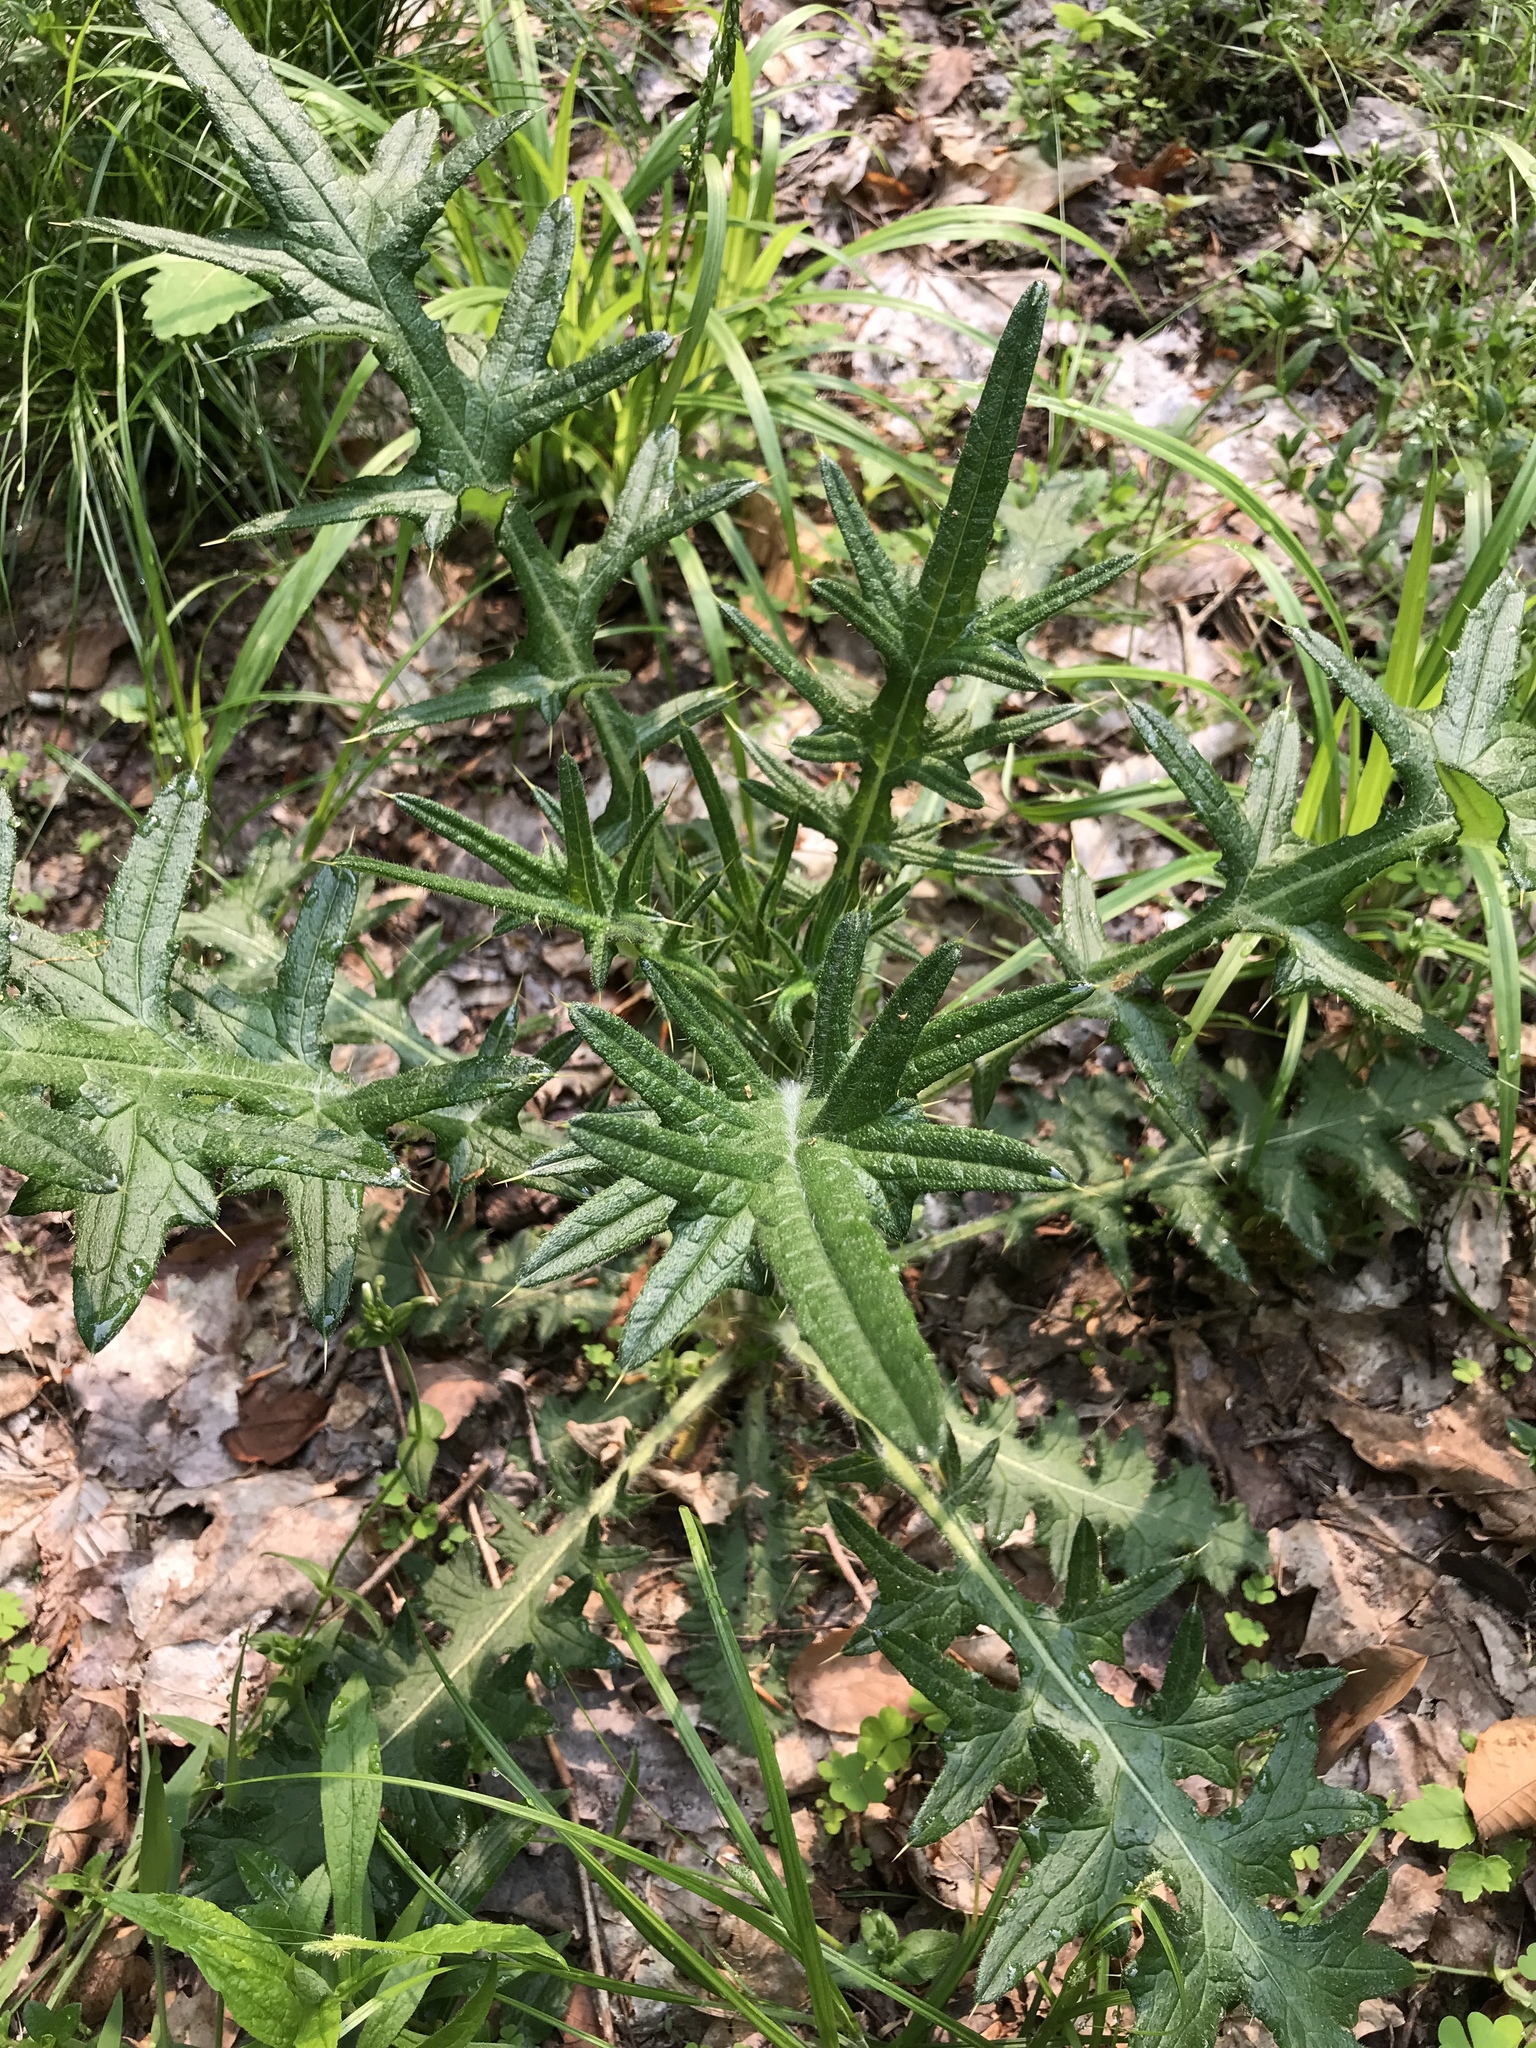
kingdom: Plantae
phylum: Tracheophyta
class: Magnoliopsida
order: Asterales
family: Asteraceae
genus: Cirsium
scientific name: Cirsium vulgare
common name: Bull thistle
